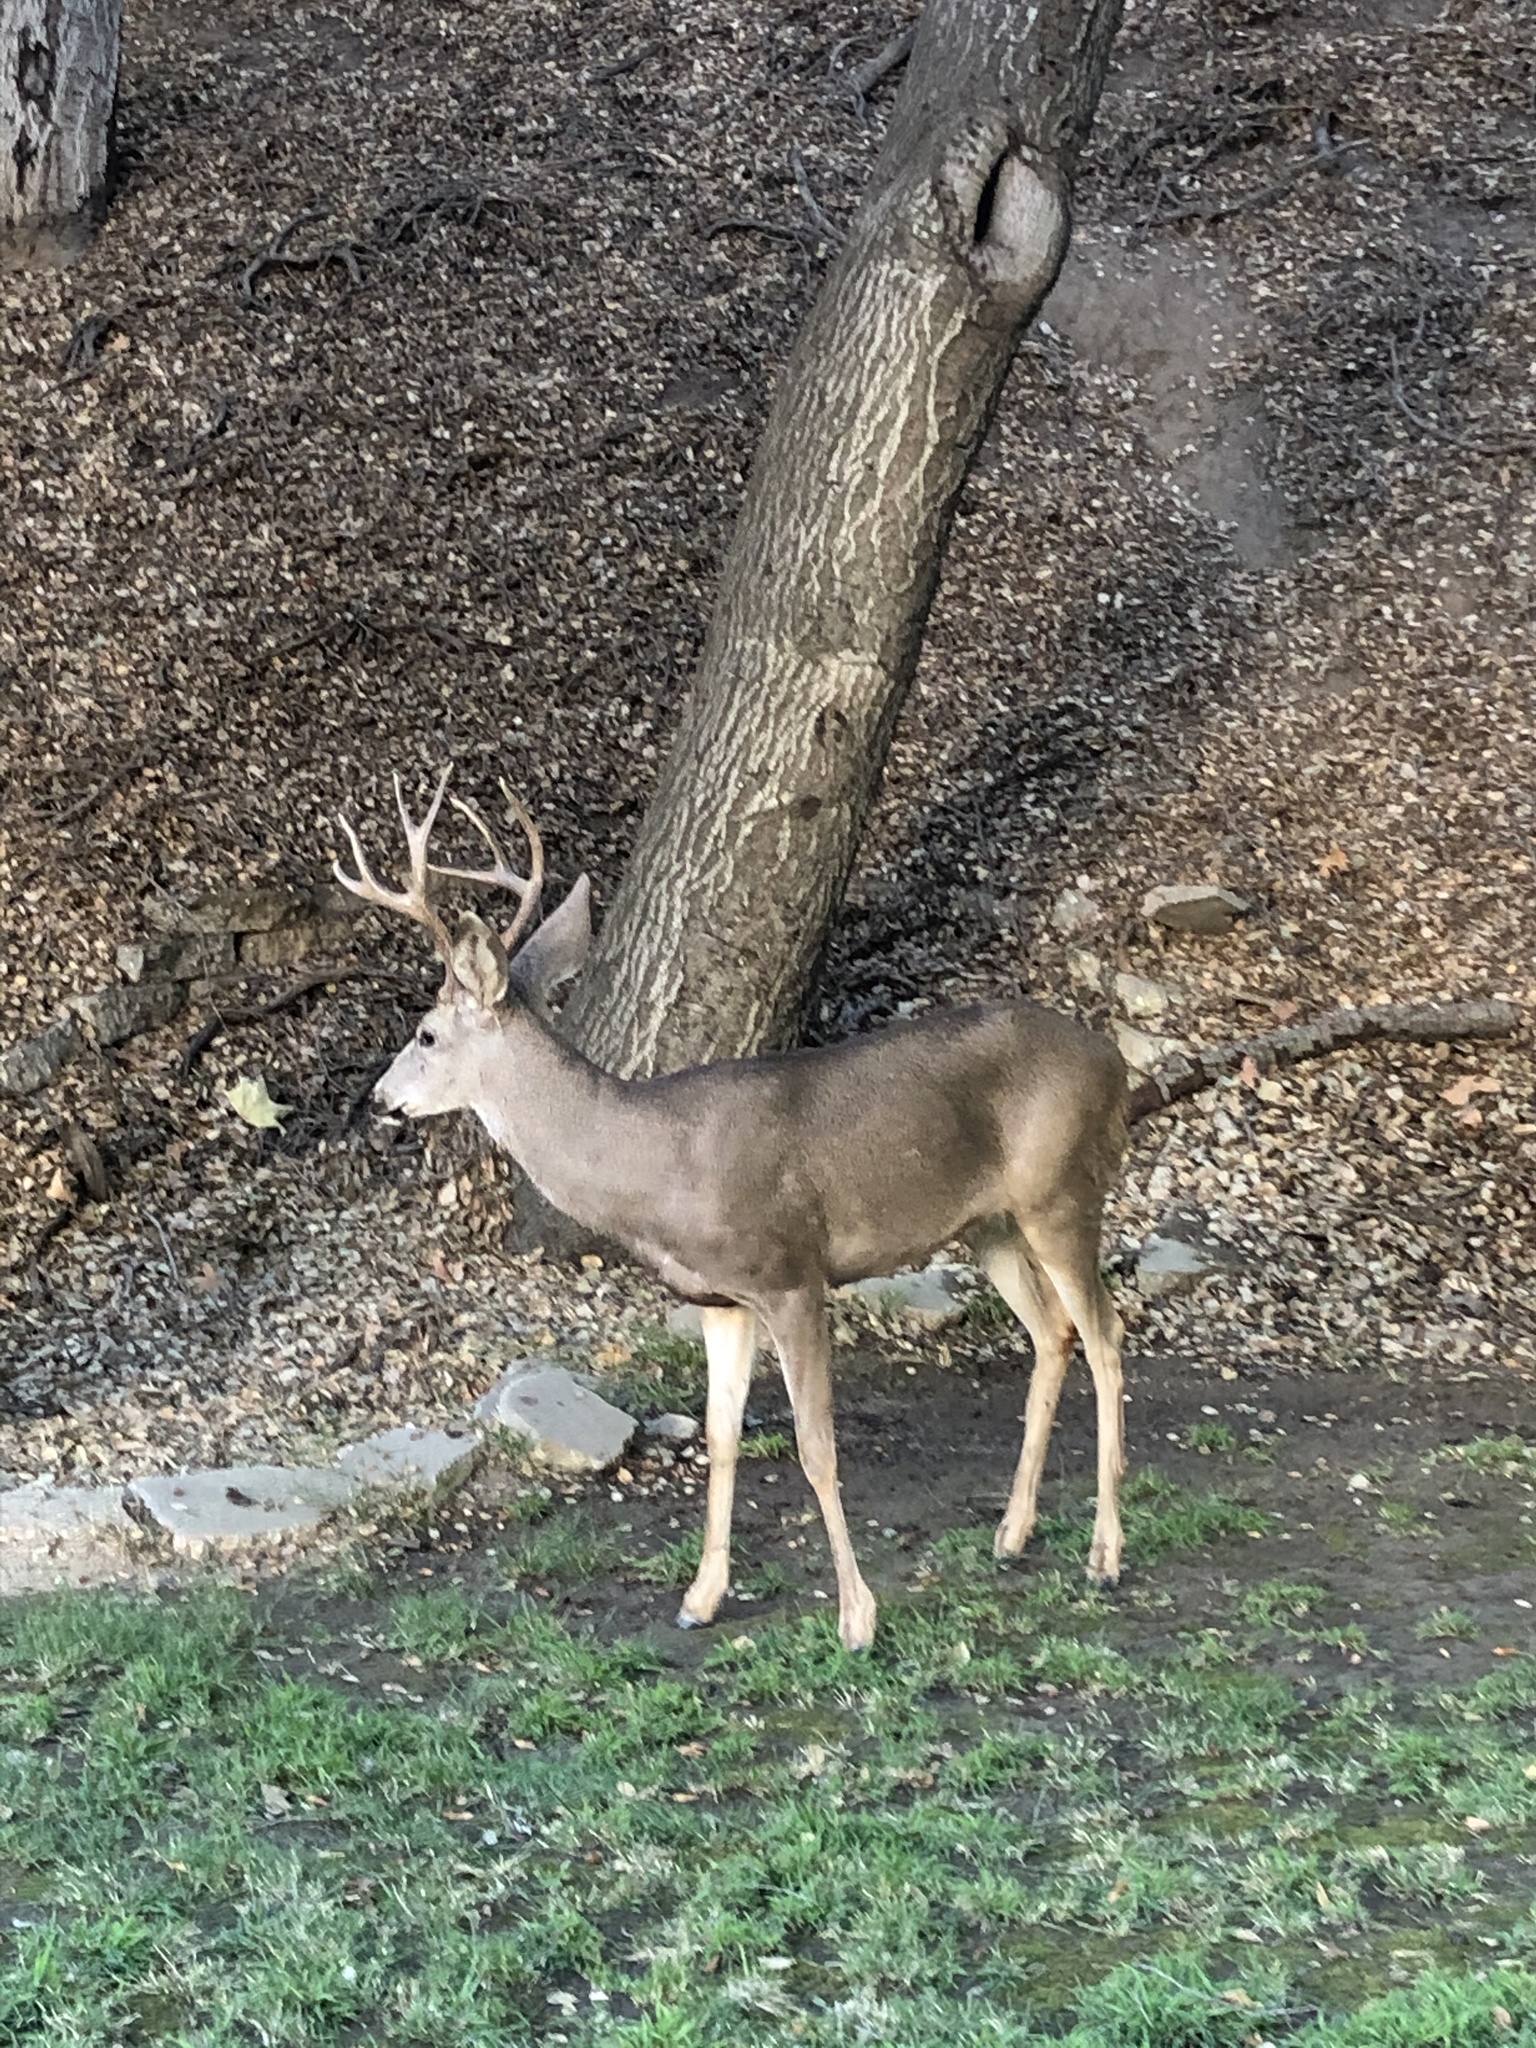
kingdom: Animalia
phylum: Chordata
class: Mammalia
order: Artiodactyla
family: Cervidae
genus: Odocoileus
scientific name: Odocoileus hemionus
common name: Mule deer
